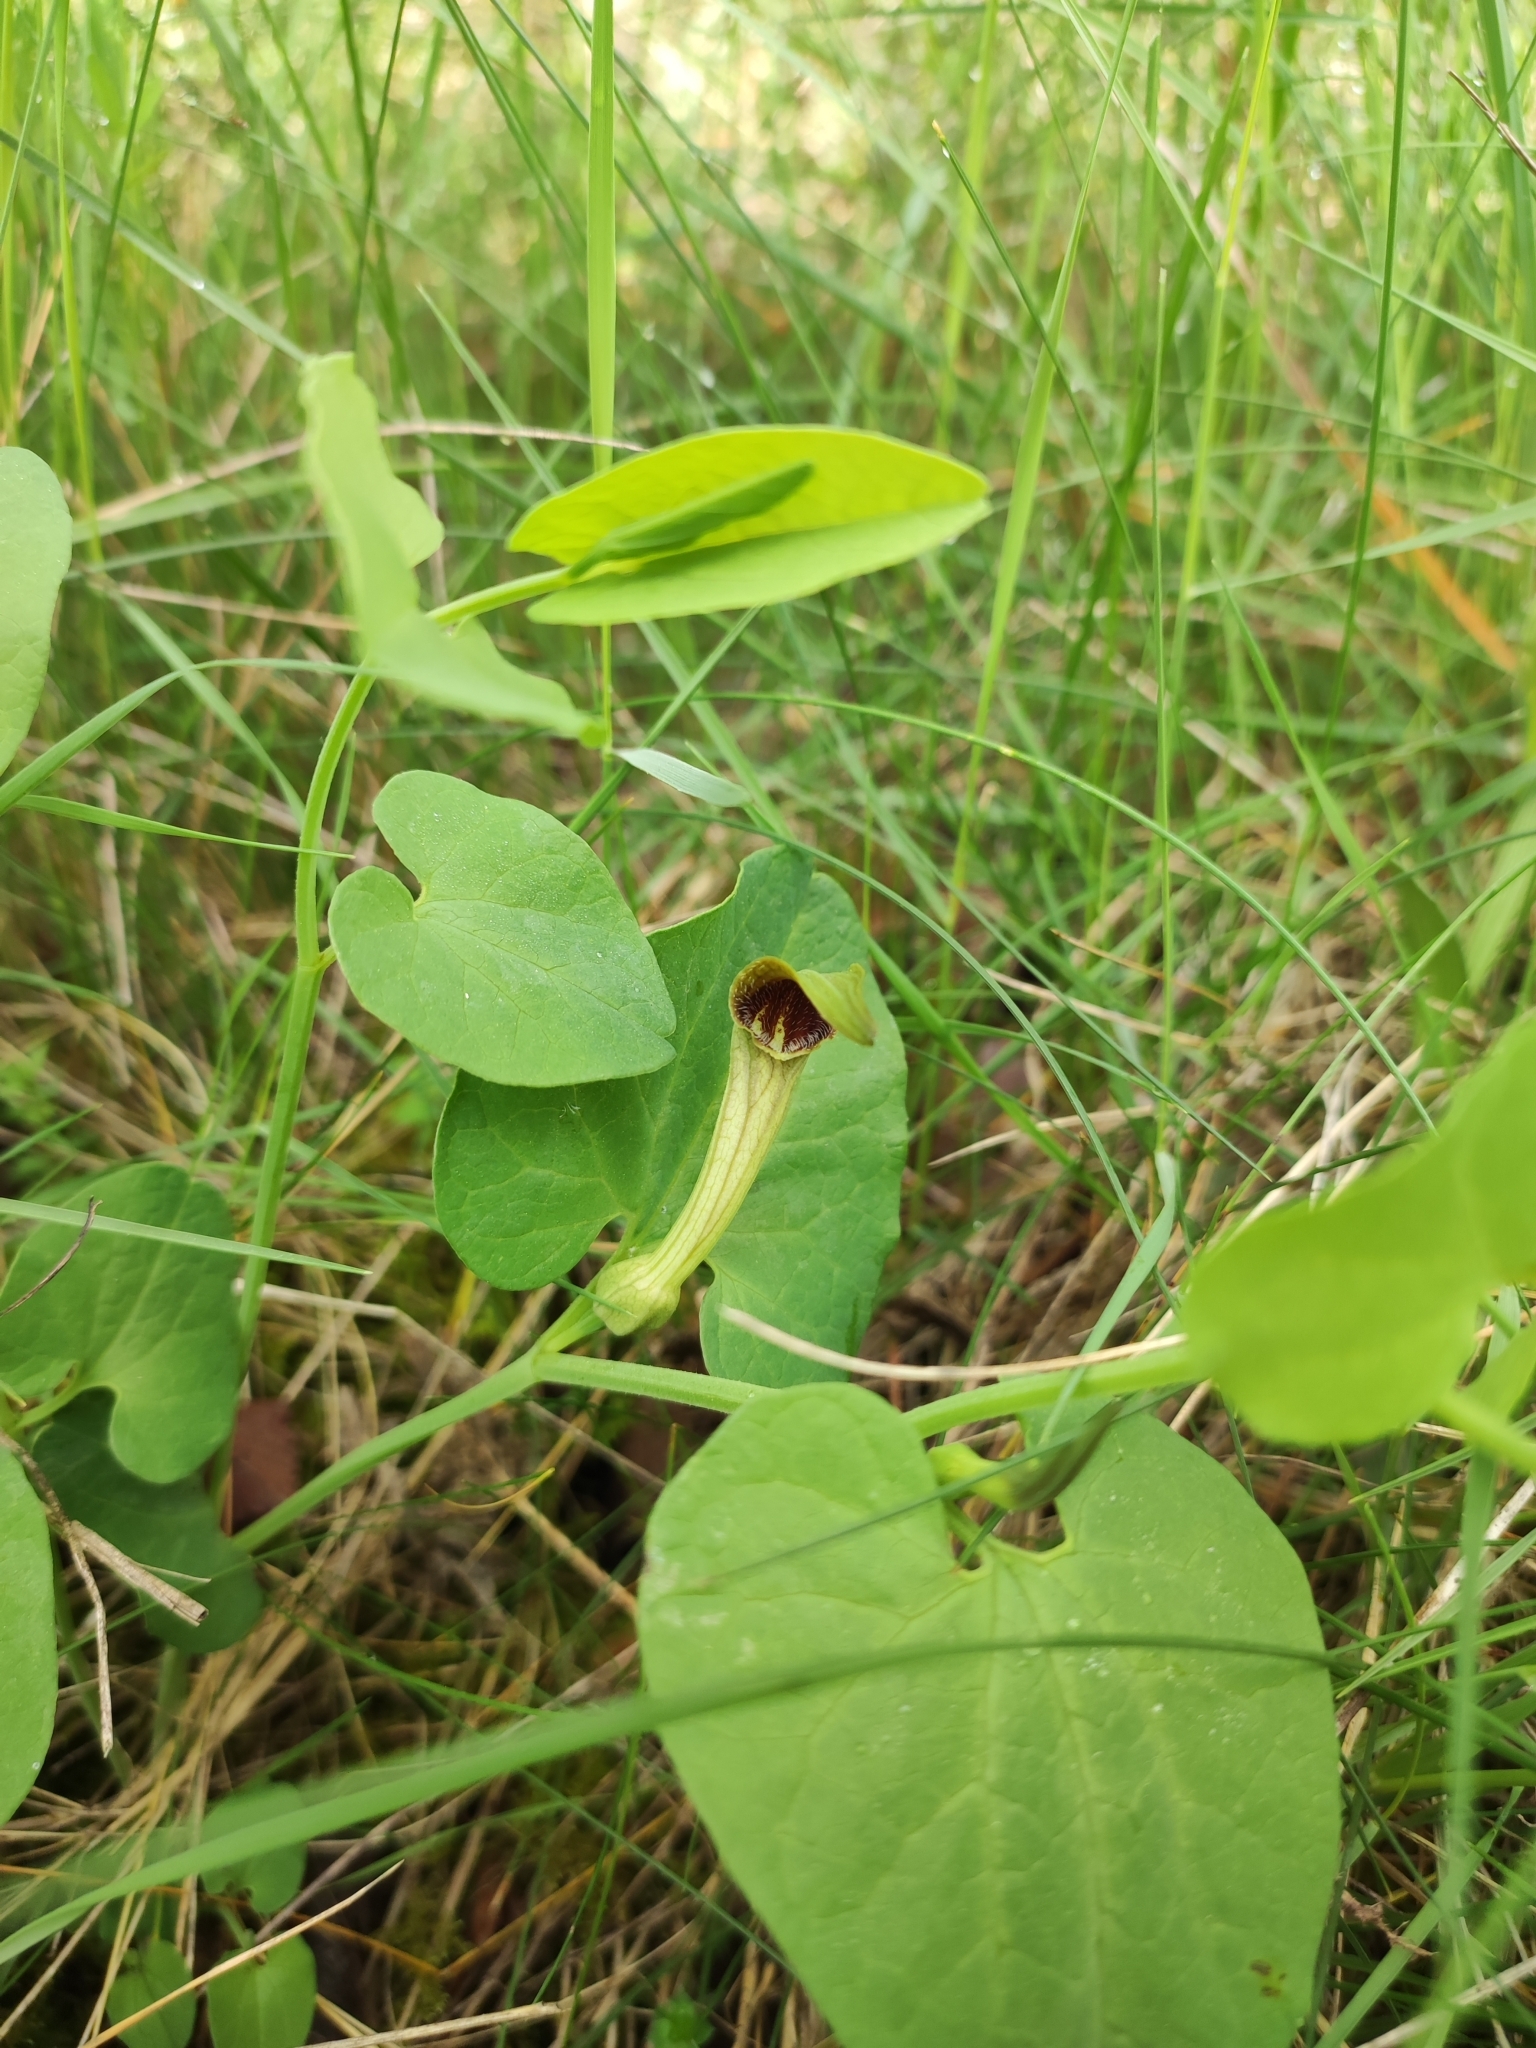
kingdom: Plantae
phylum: Tracheophyta
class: Magnoliopsida
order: Piperales
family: Aristolochiaceae
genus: Aristolochia
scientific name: Aristolochia paucinervis
